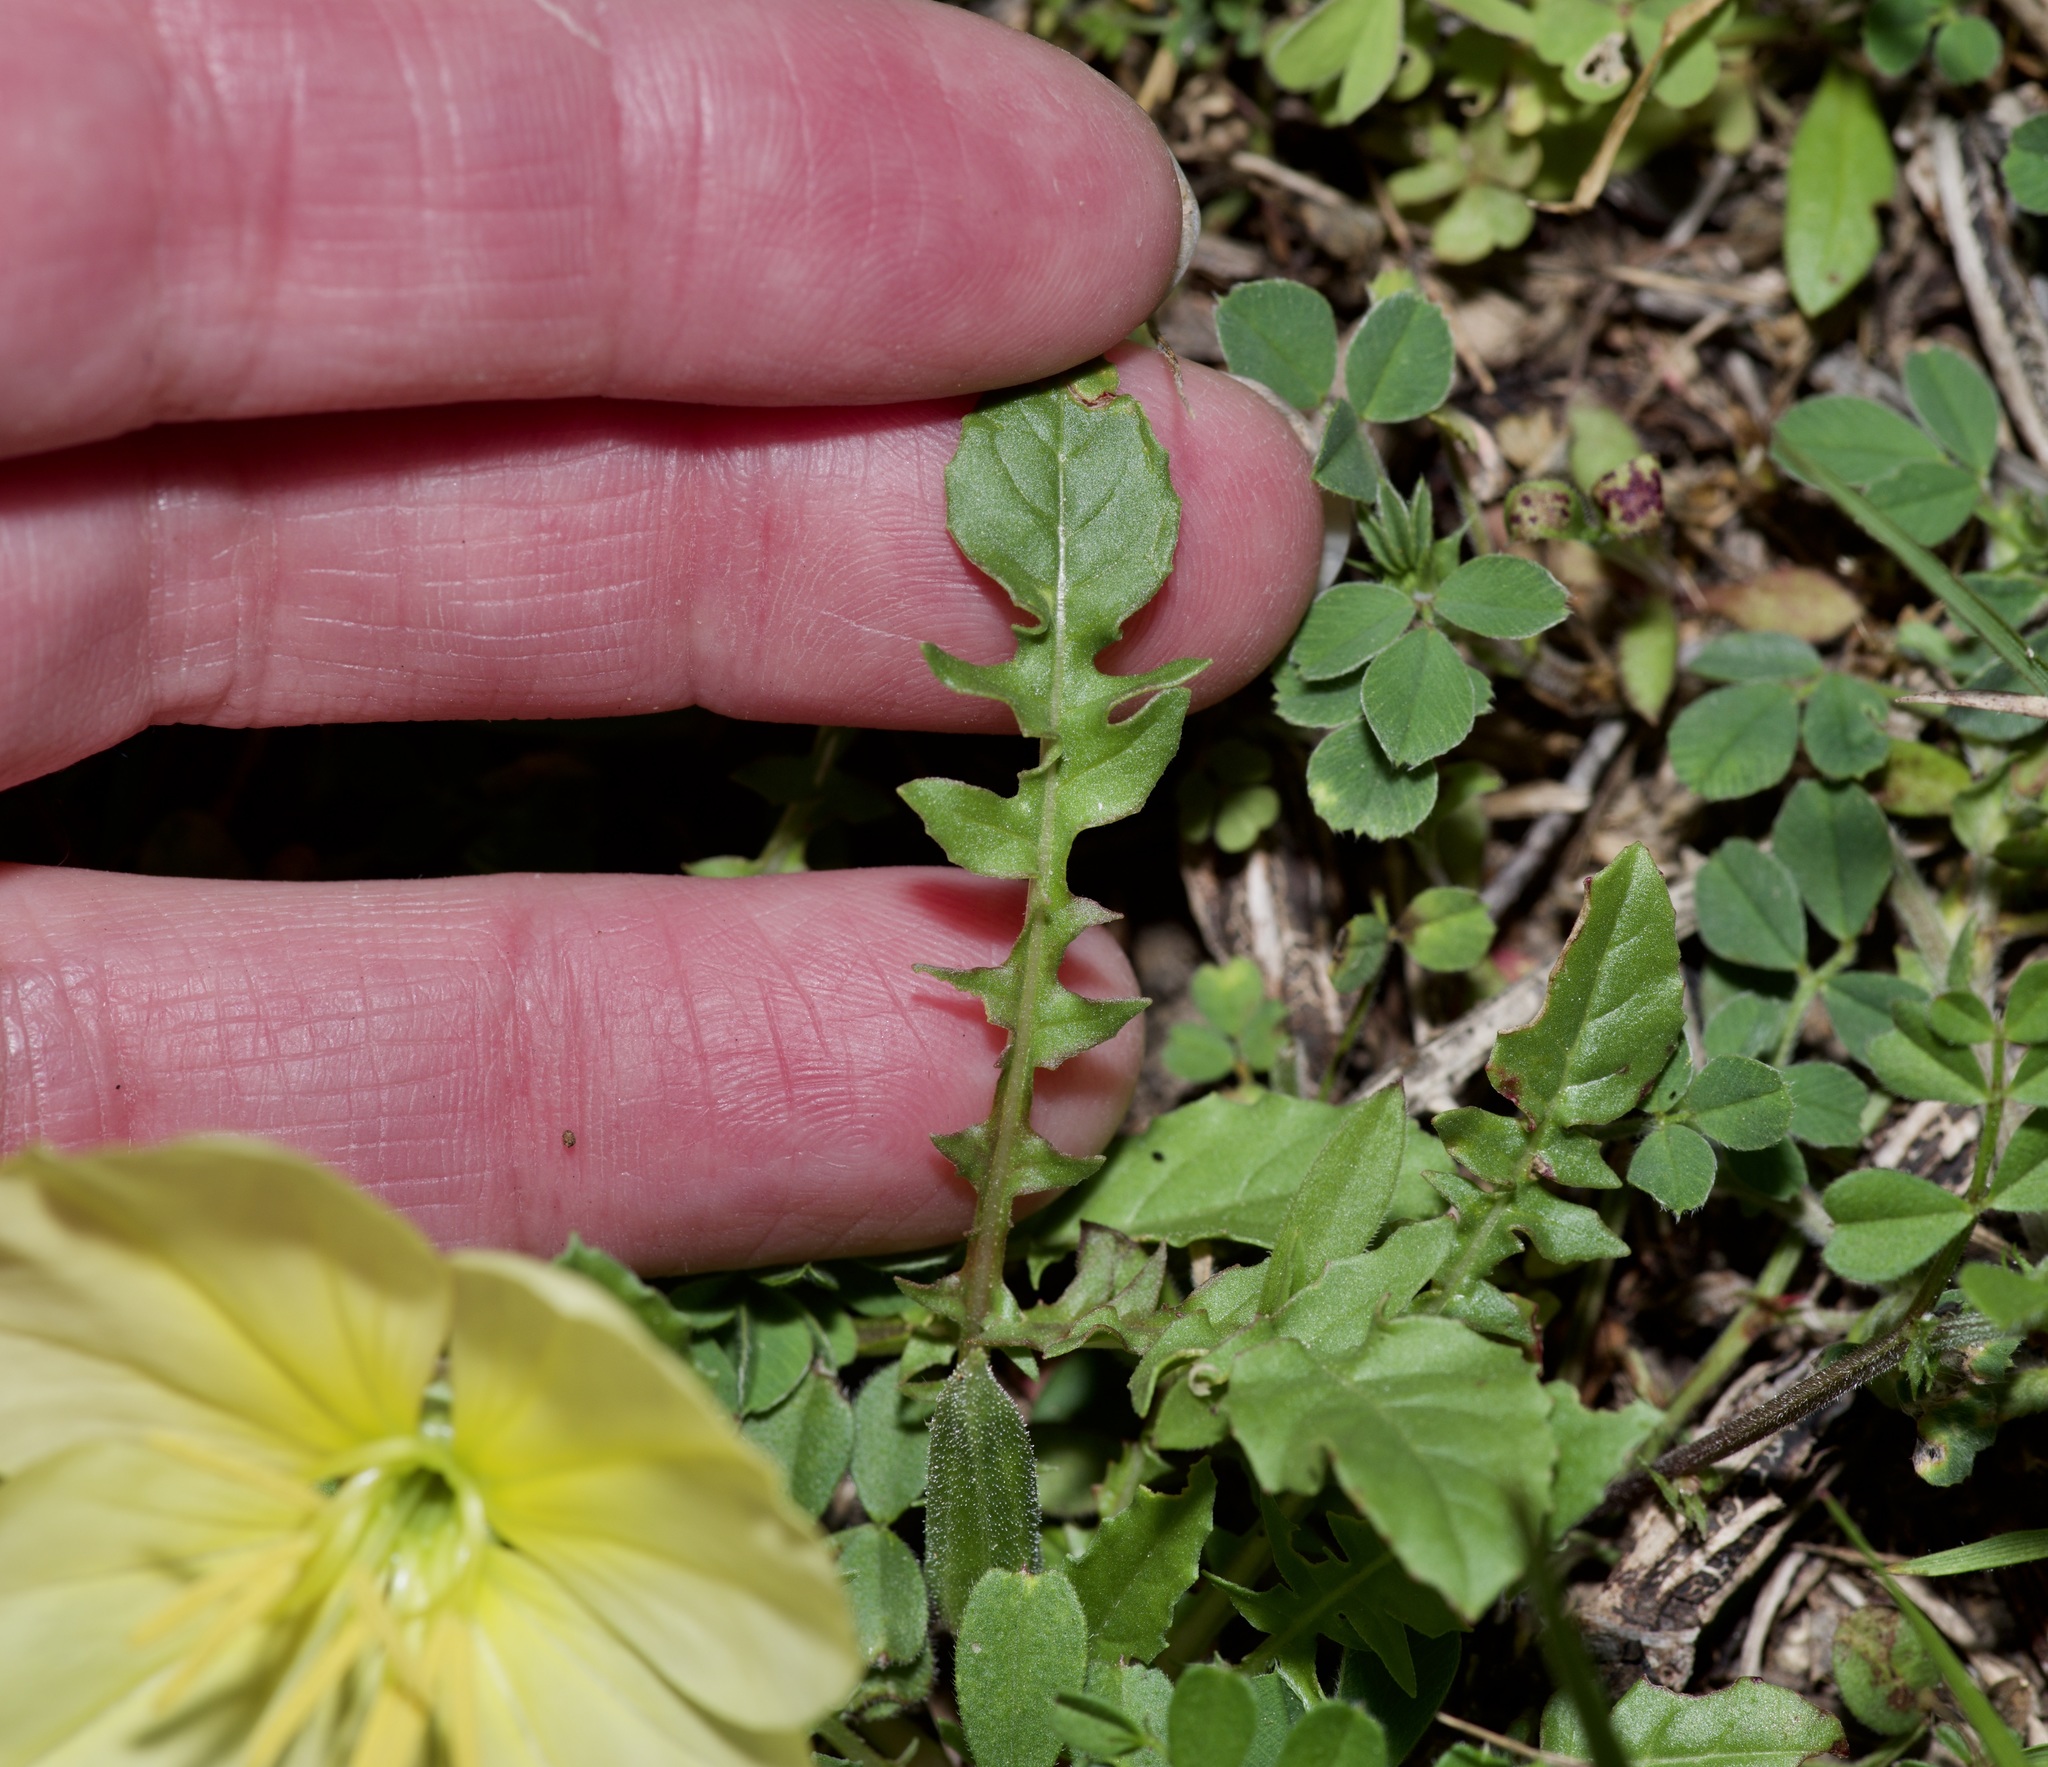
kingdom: Plantae
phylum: Tracheophyta
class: Magnoliopsida
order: Myrtales
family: Onagraceae
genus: Oenothera
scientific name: Oenothera triloba
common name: Sessile evening-primrose
